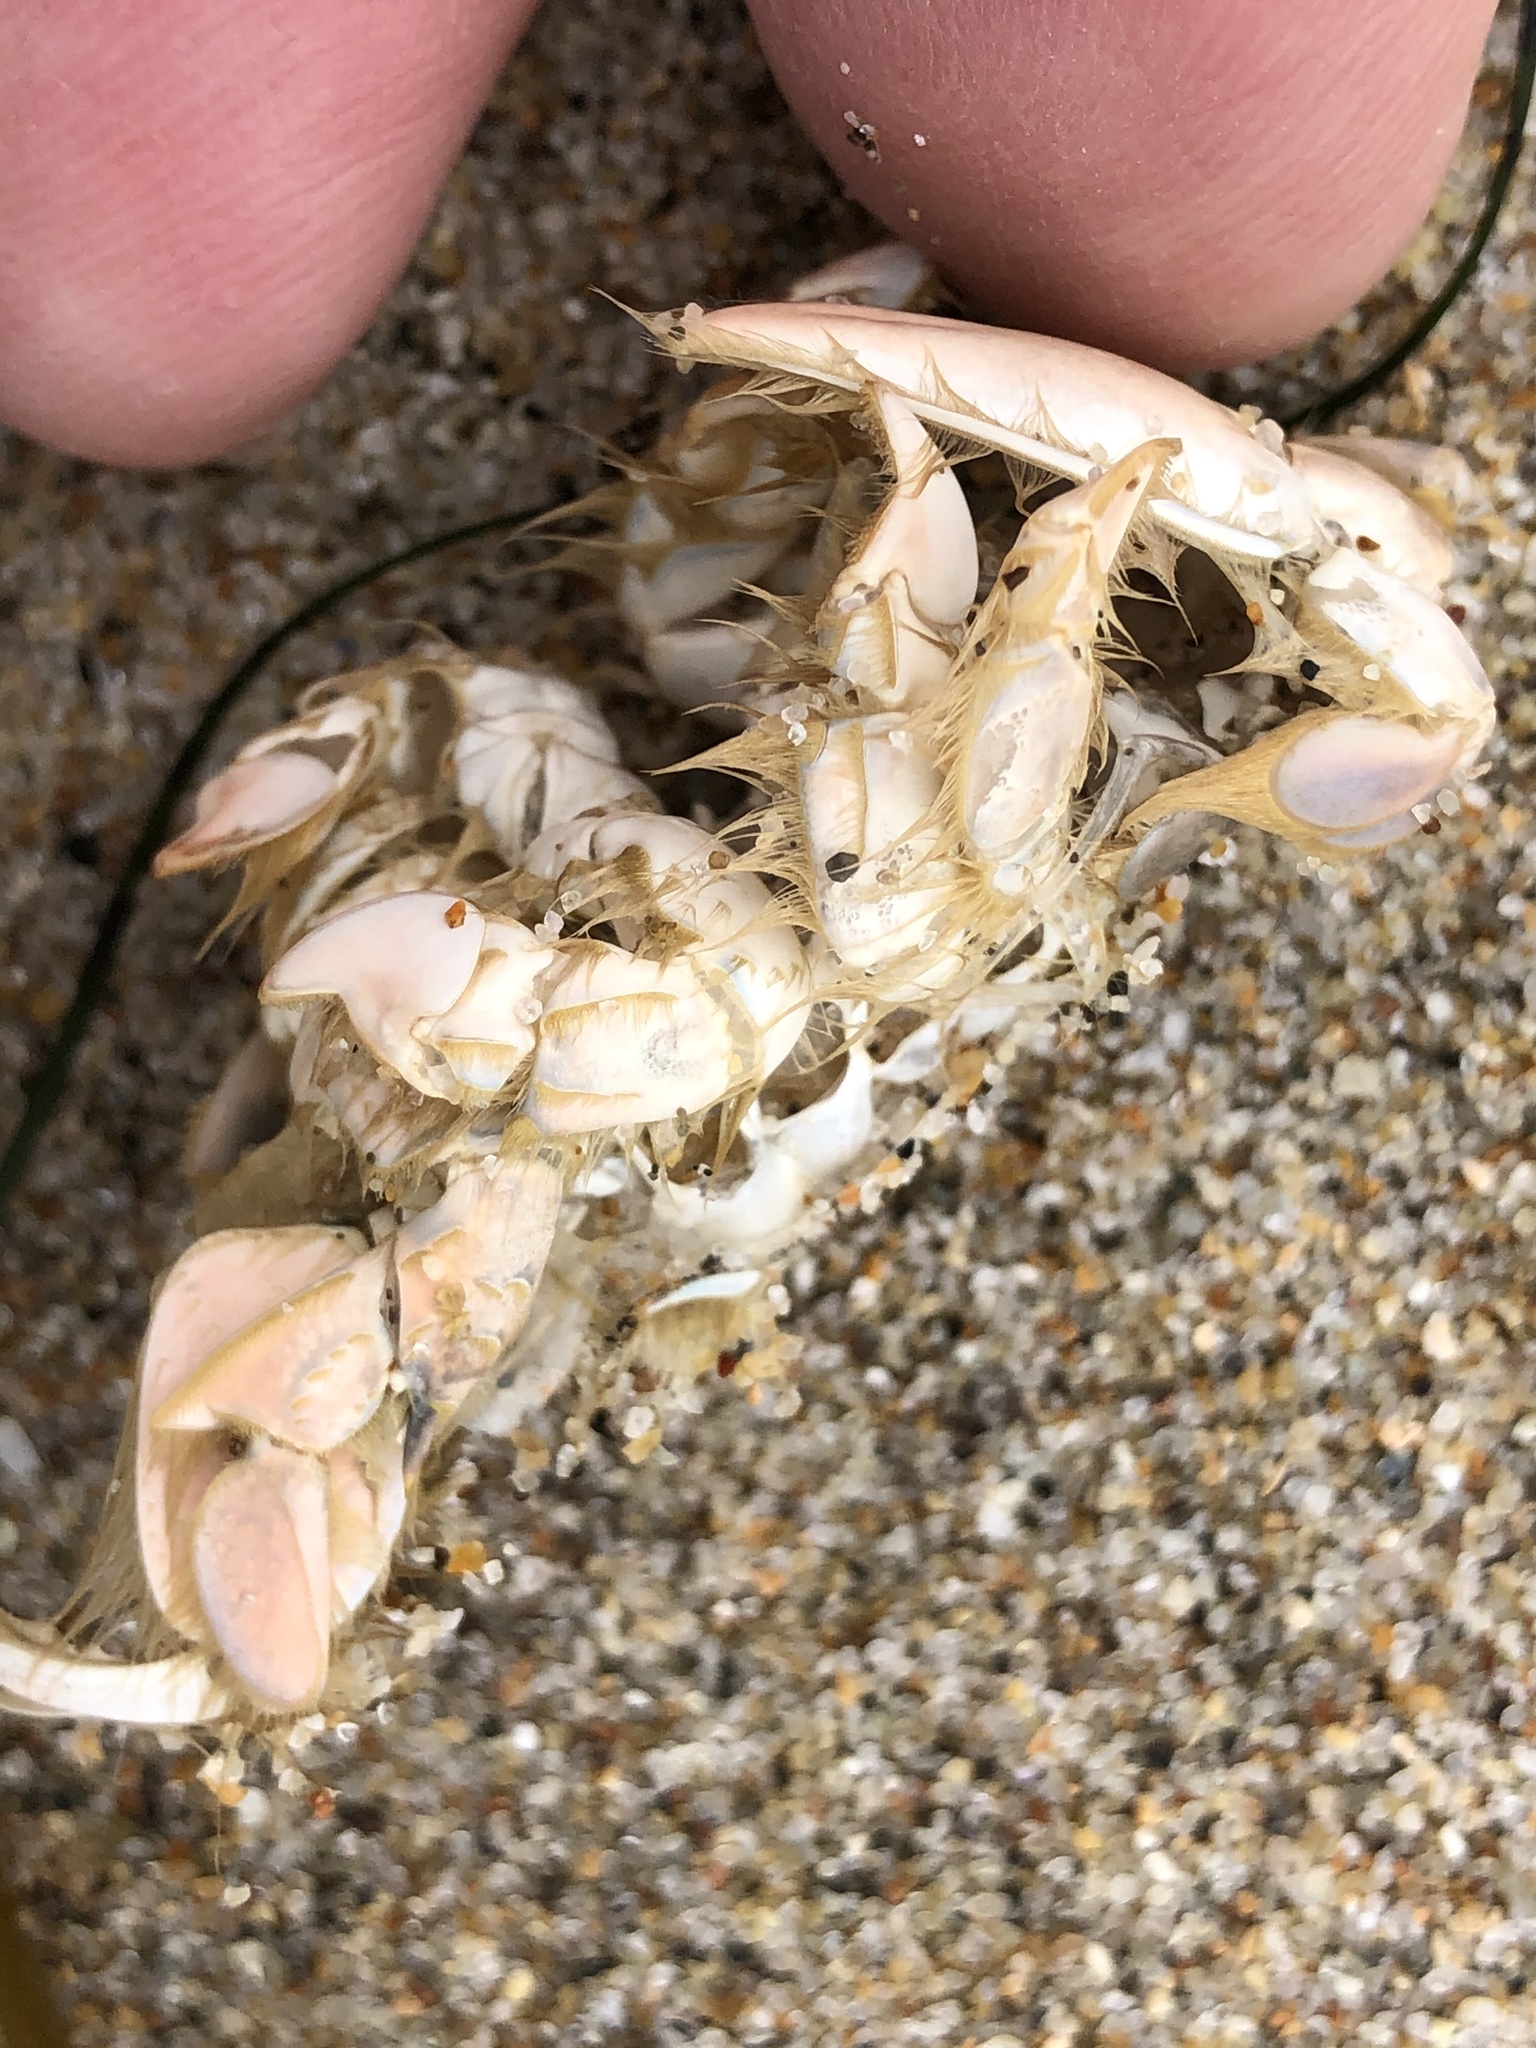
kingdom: Animalia
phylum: Arthropoda
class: Malacostraca
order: Decapoda
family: Hippidae
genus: Emerita
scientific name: Emerita analoga
